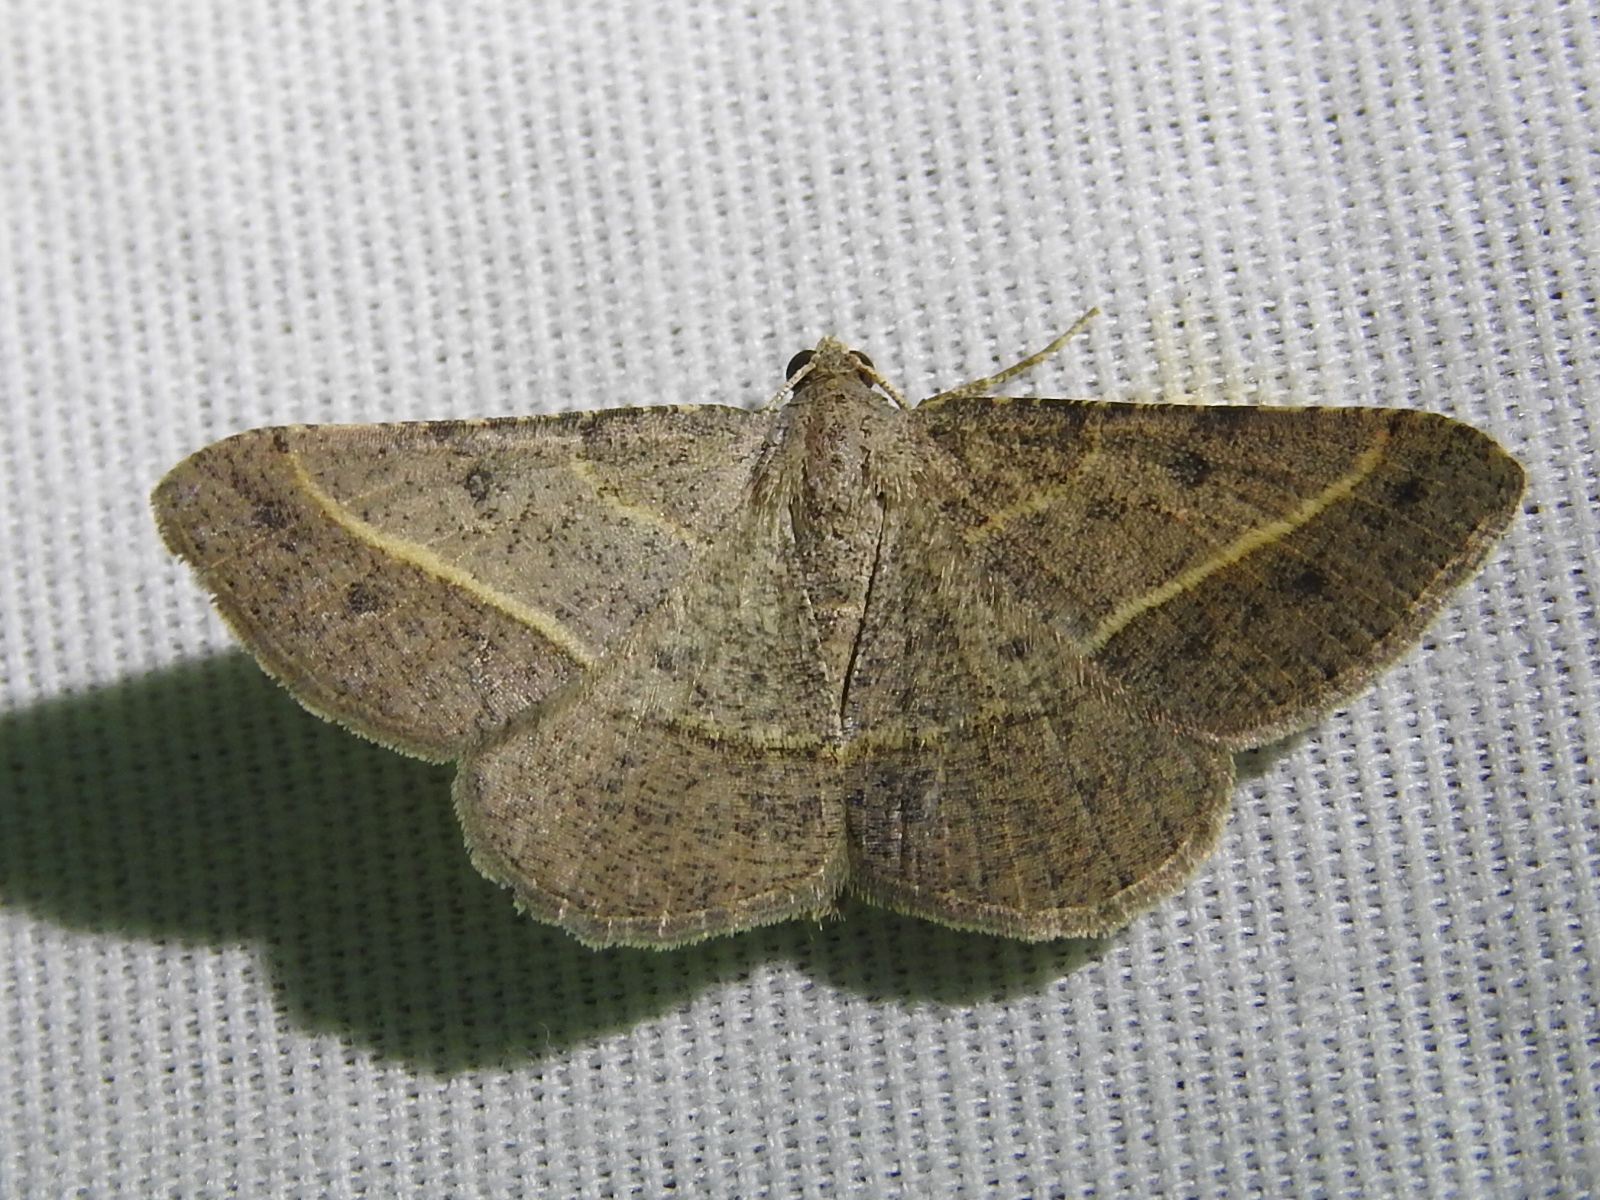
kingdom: Animalia
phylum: Arthropoda
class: Insecta
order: Lepidoptera
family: Geometridae
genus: Digrammia
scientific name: Digrammia irrorata
